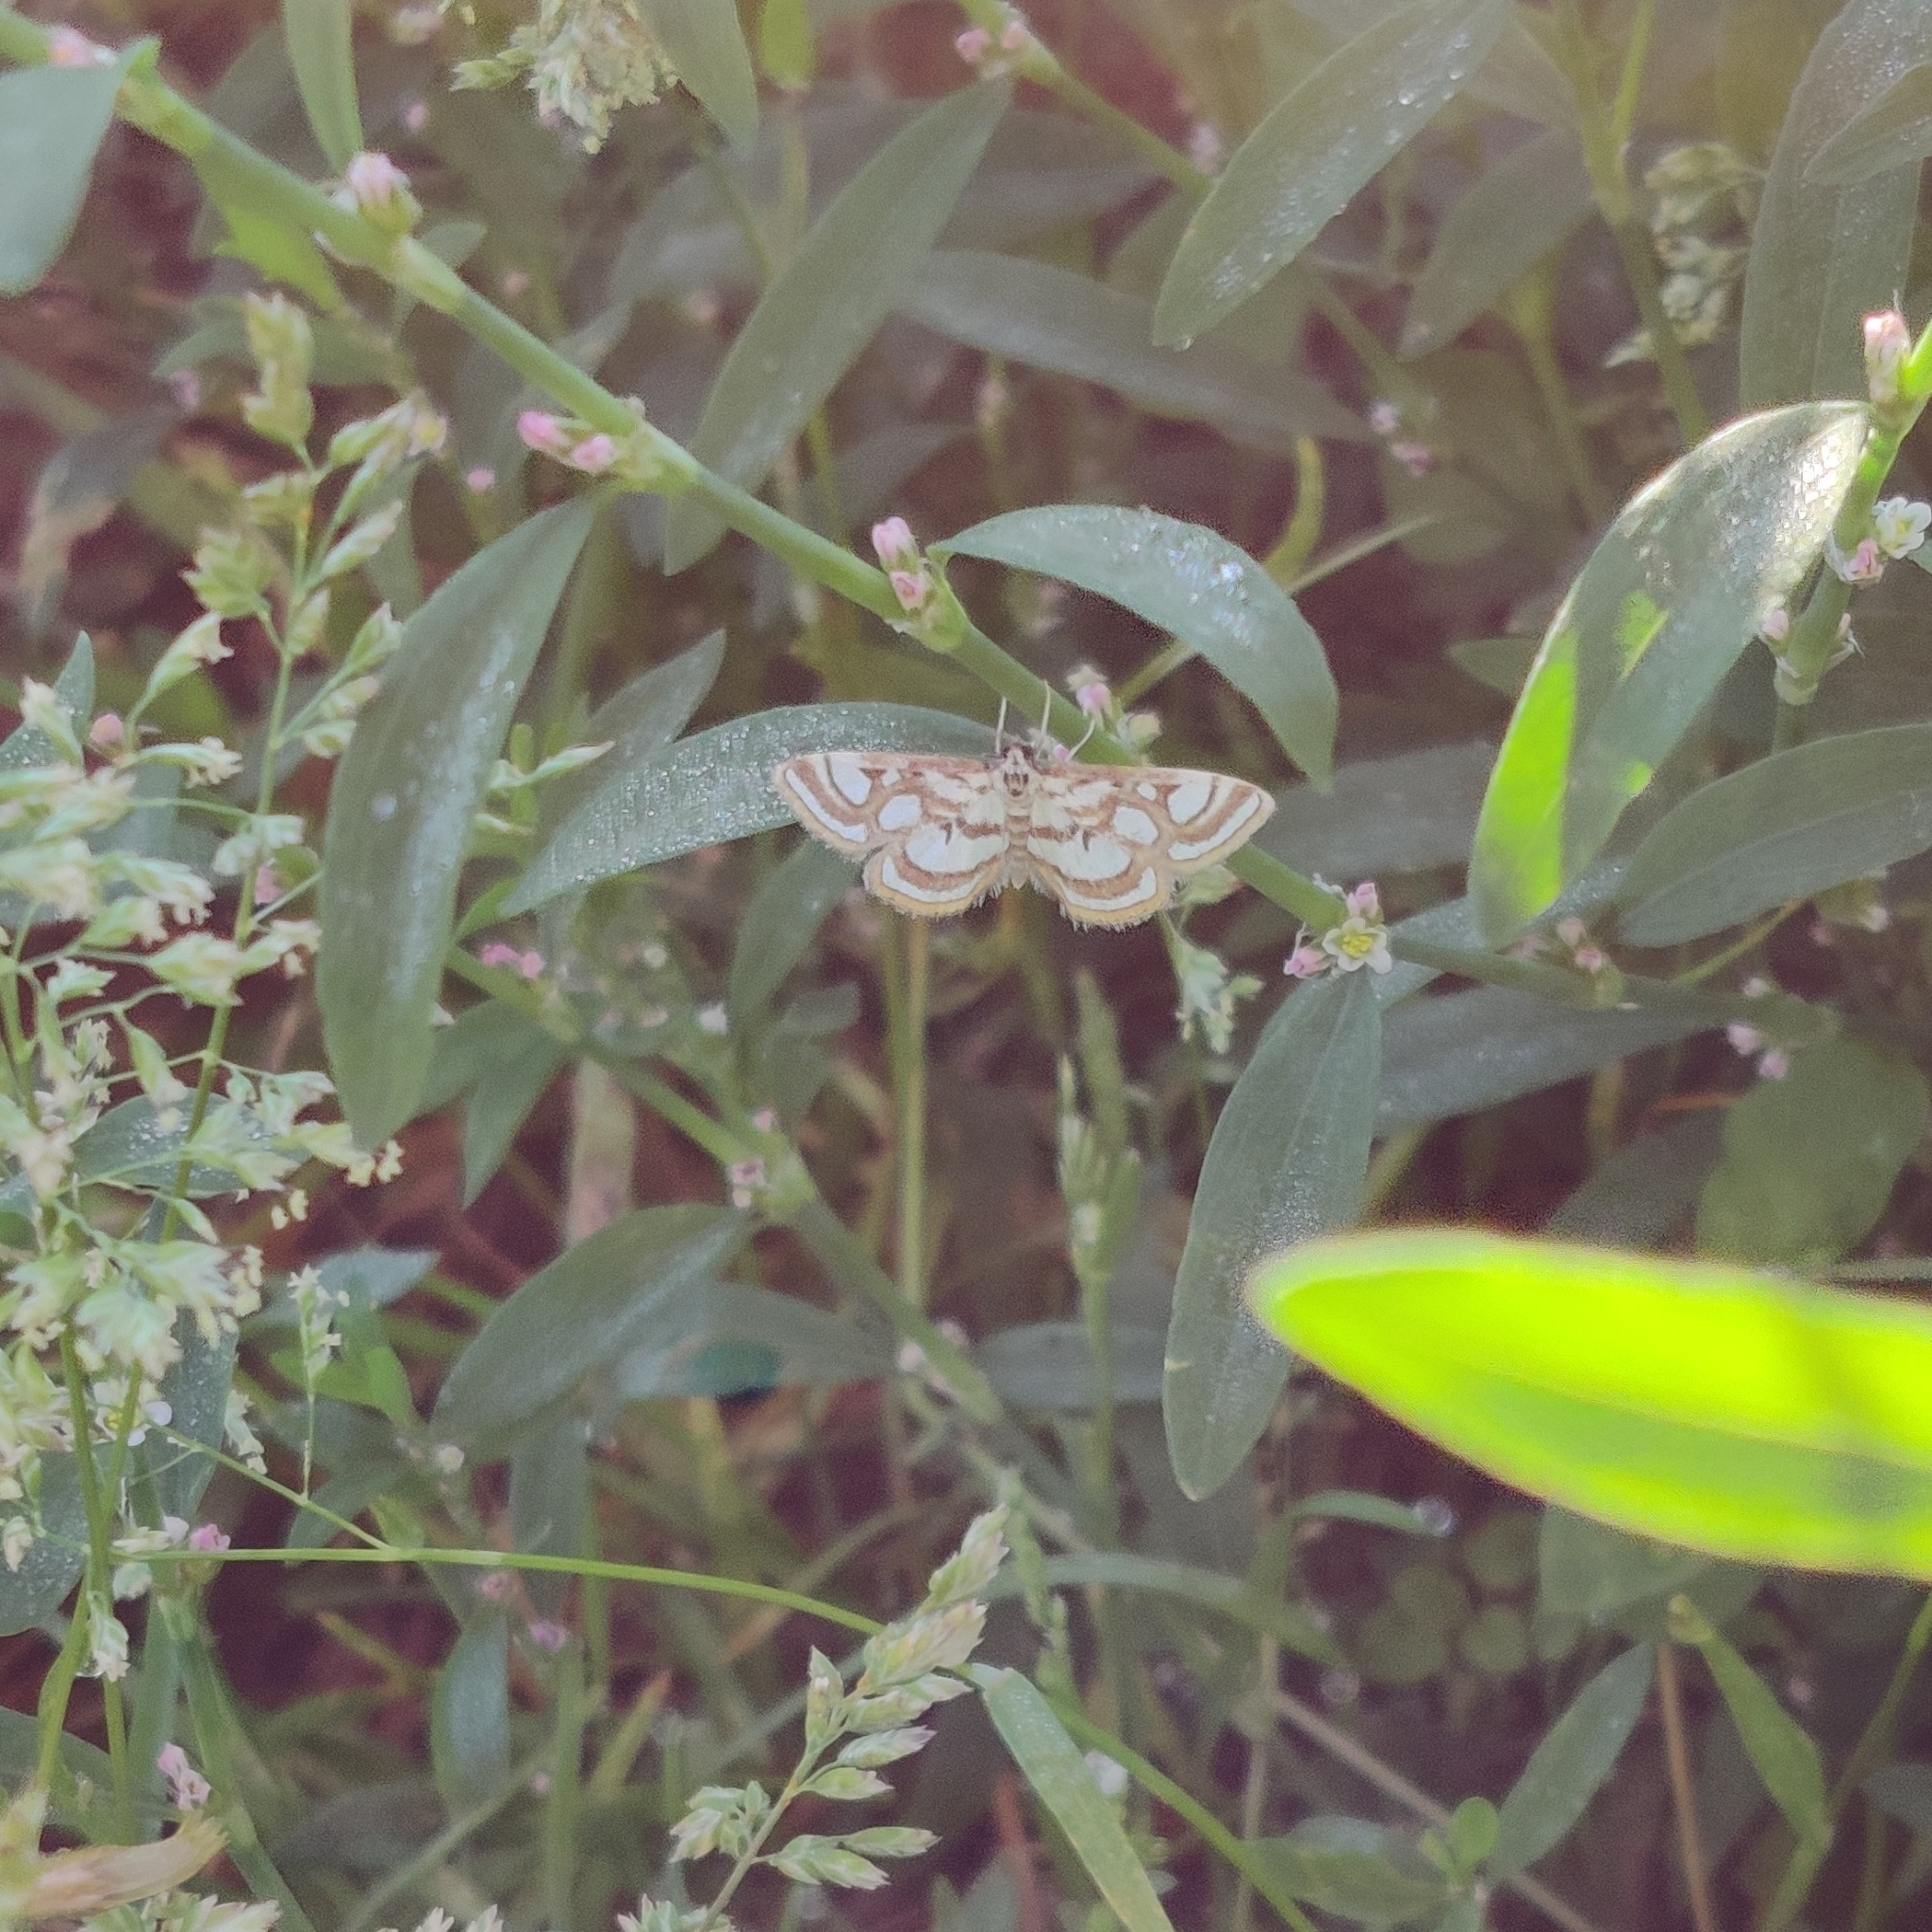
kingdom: Animalia
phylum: Arthropoda
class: Insecta
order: Lepidoptera
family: Crambidae
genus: Nymphula
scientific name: Nymphula nitidulata
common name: Beautiful china mark
